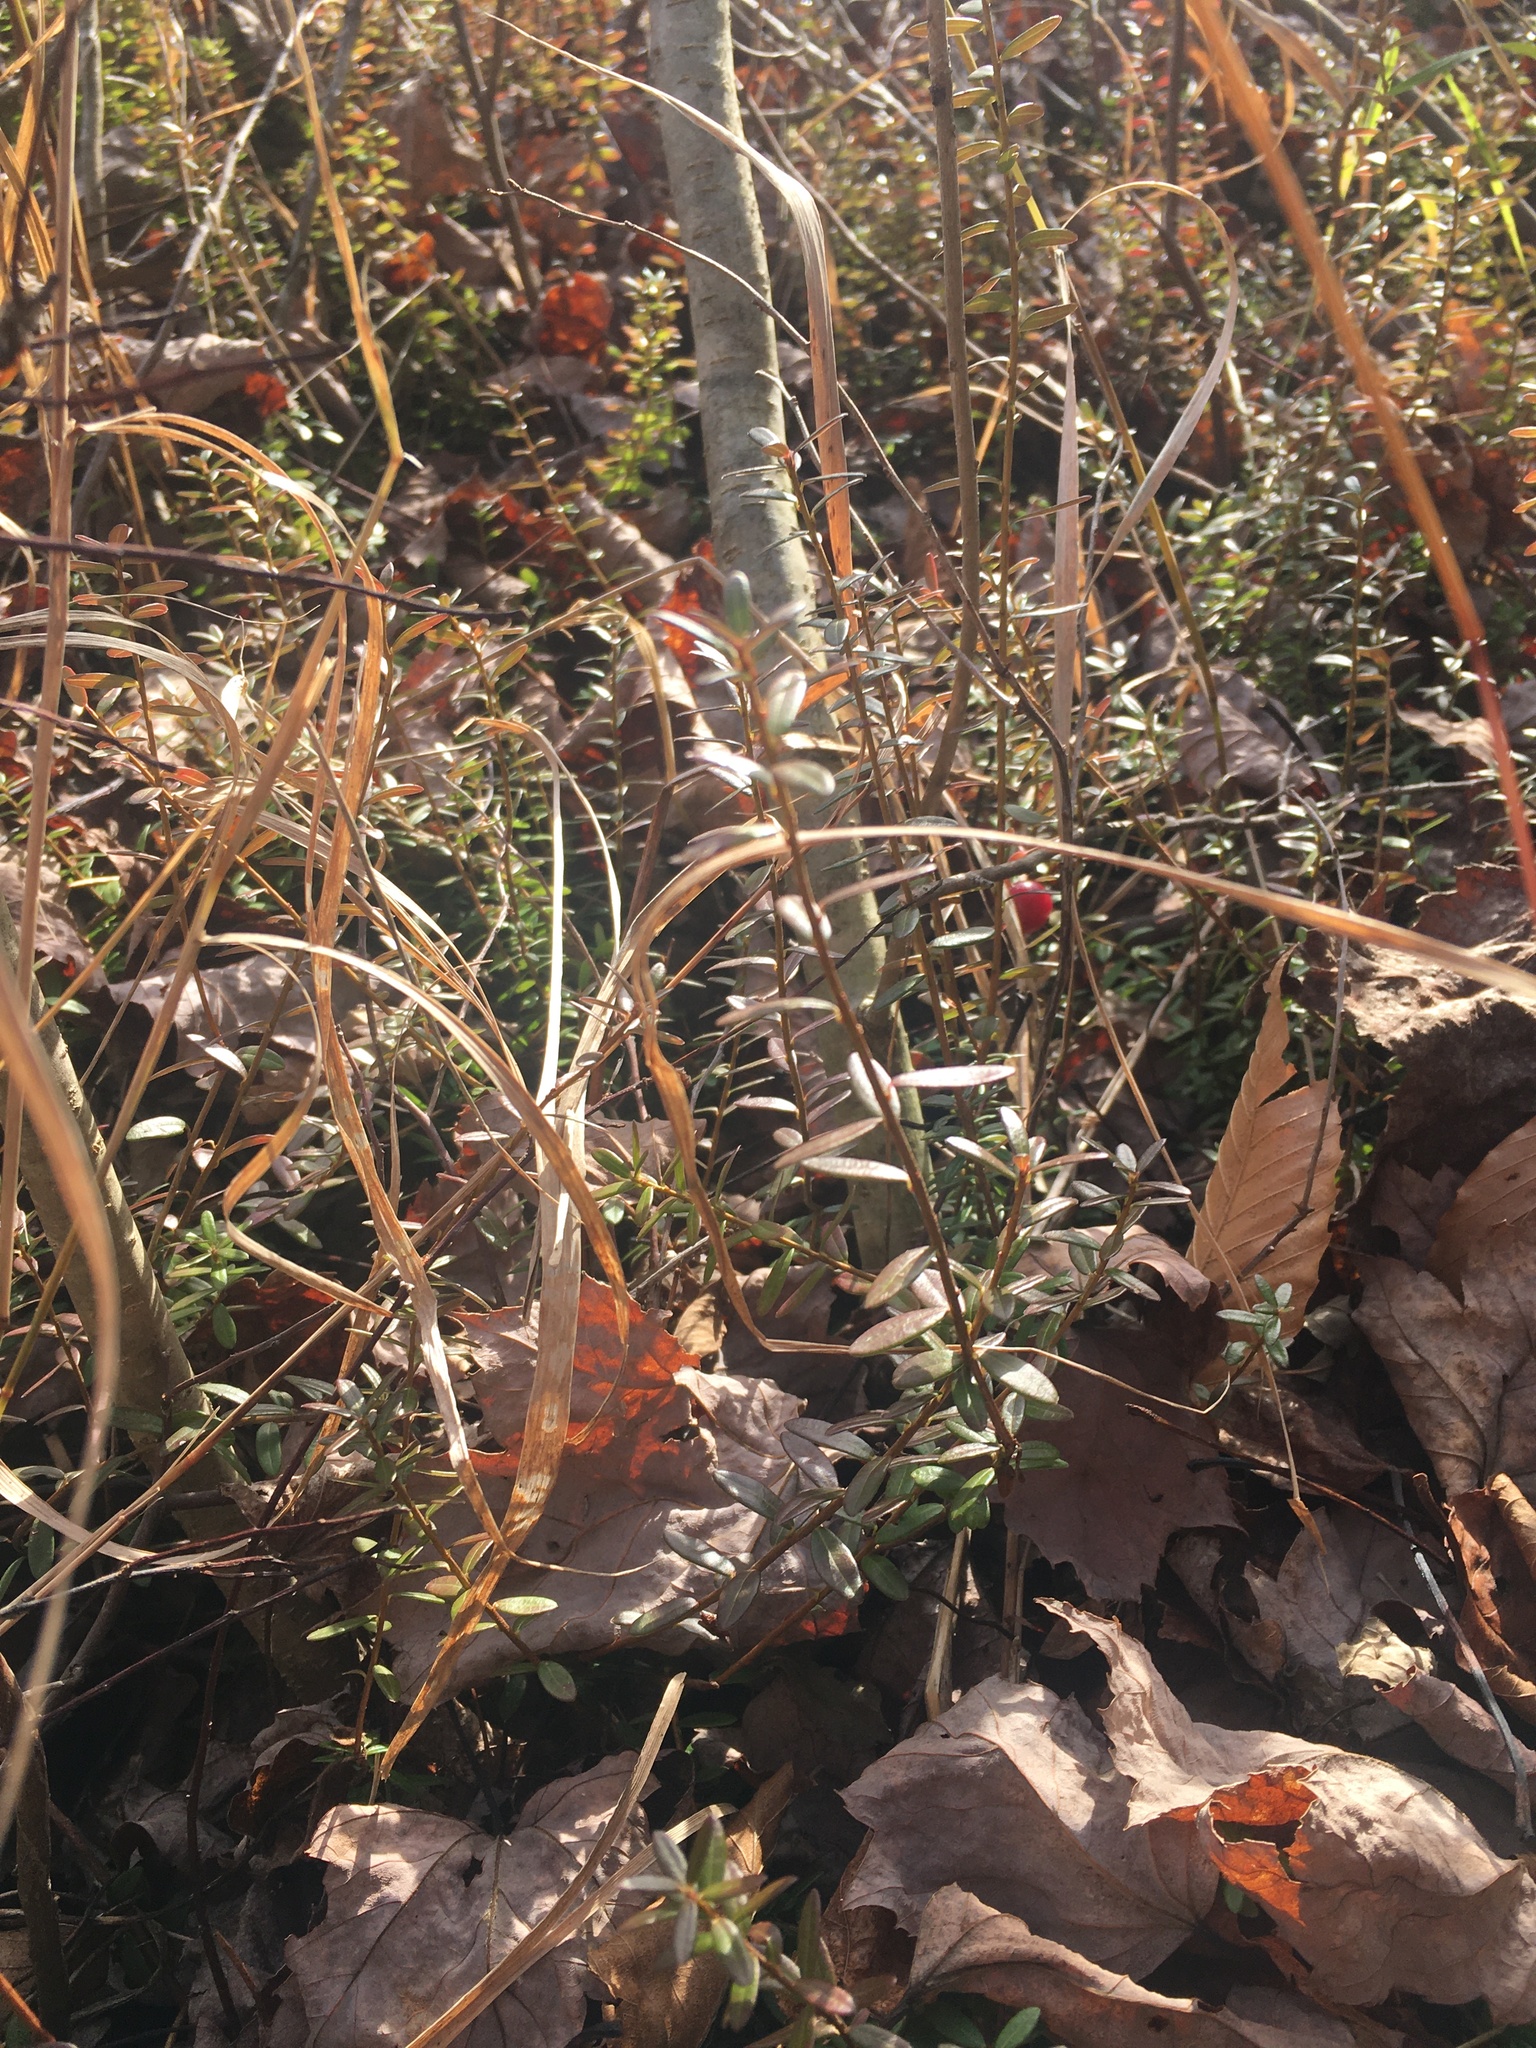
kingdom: Plantae
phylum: Tracheophyta
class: Magnoliopsida
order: Ericales
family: Ericaceae
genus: Vaccinium
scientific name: Vaccinium macrocarpon
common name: American cranberry
